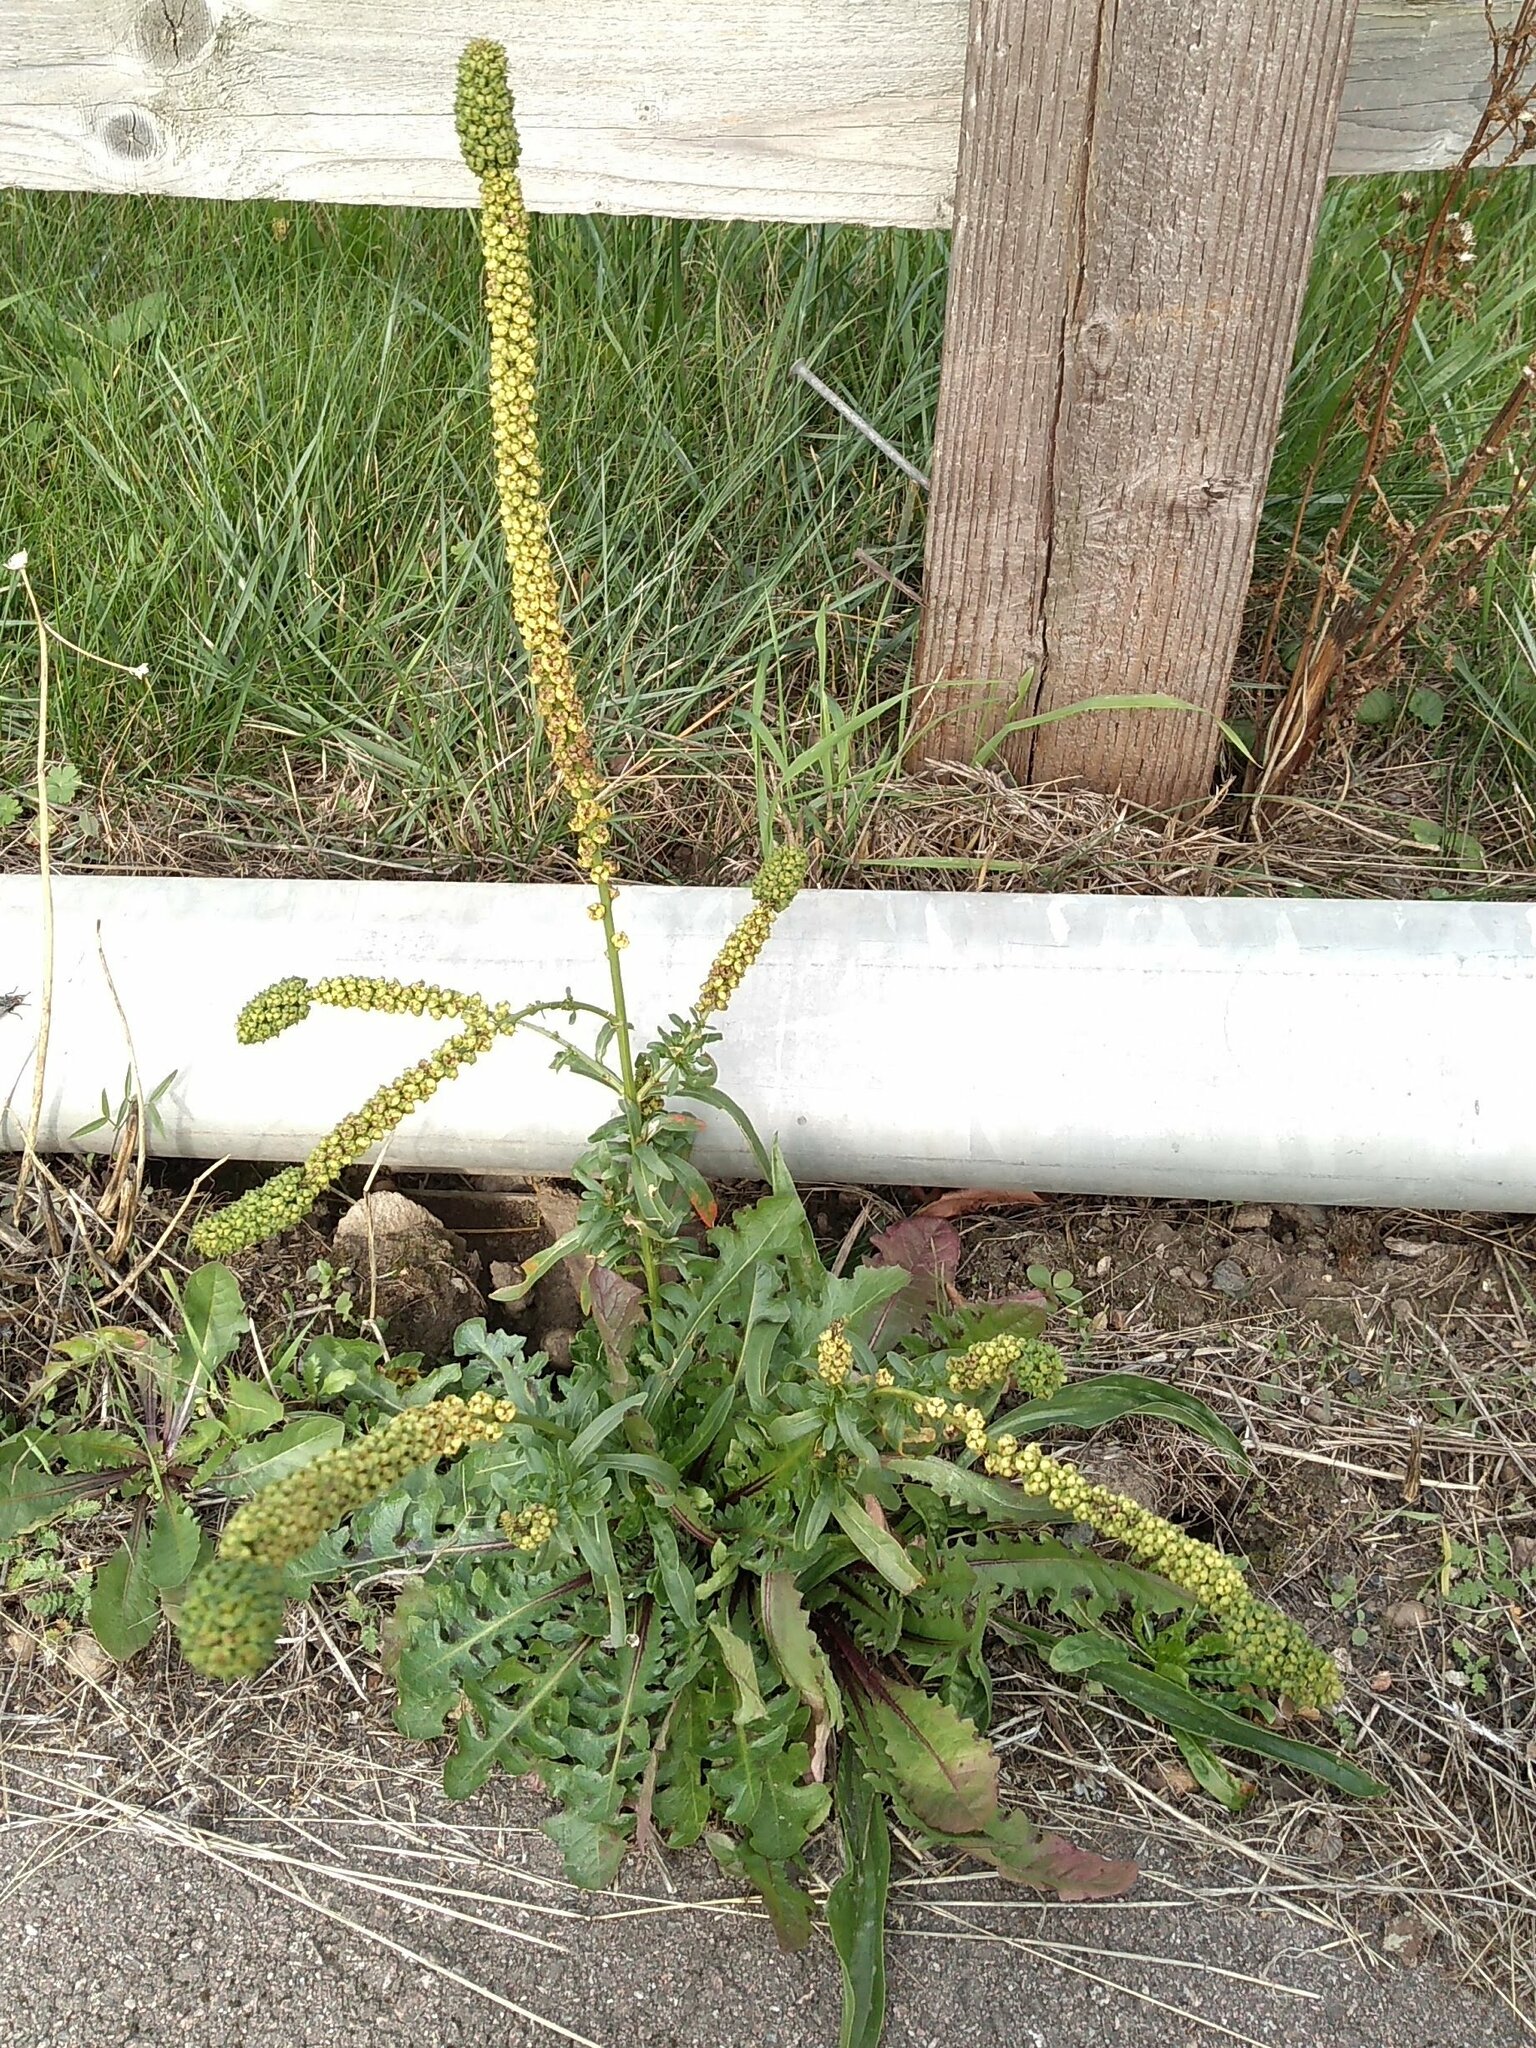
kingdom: Plantae
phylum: Tracheophyta
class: Magnoliopsida
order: Brassicales
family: Resedaceae
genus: Reseda
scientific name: Reseda luteola
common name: Weld
